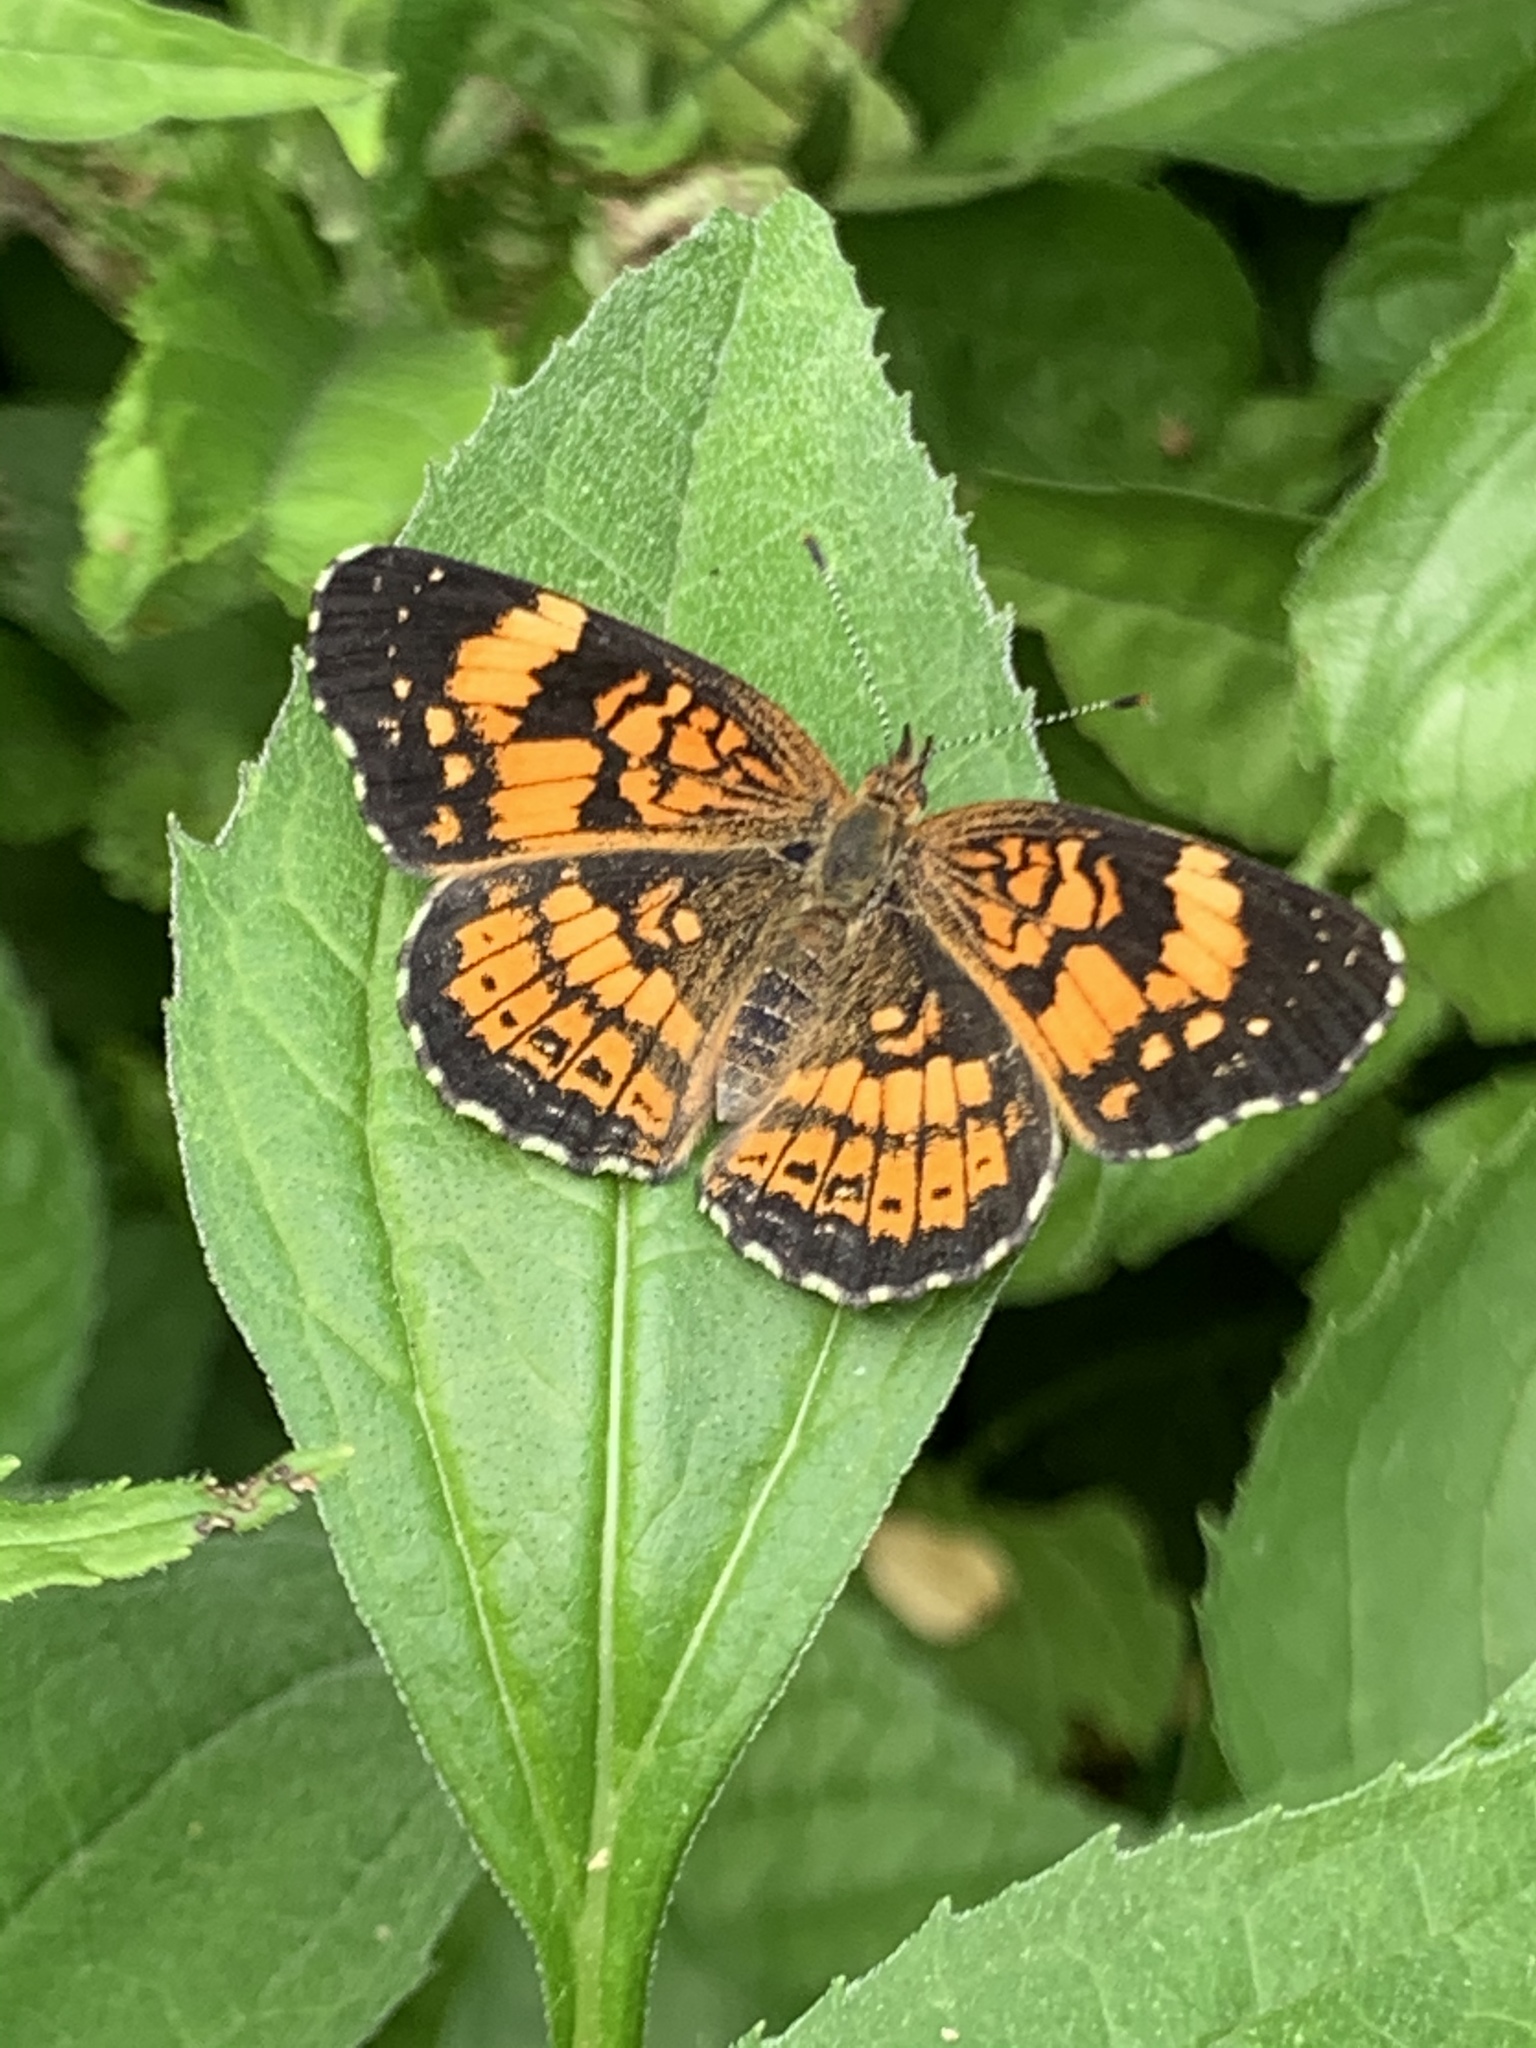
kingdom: Animalia
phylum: Arthropoda
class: Insecta
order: Lepidoptera
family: Nymphalidae
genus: Chlosyne
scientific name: Chlosyne nycteis
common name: Silvery checkerspot
